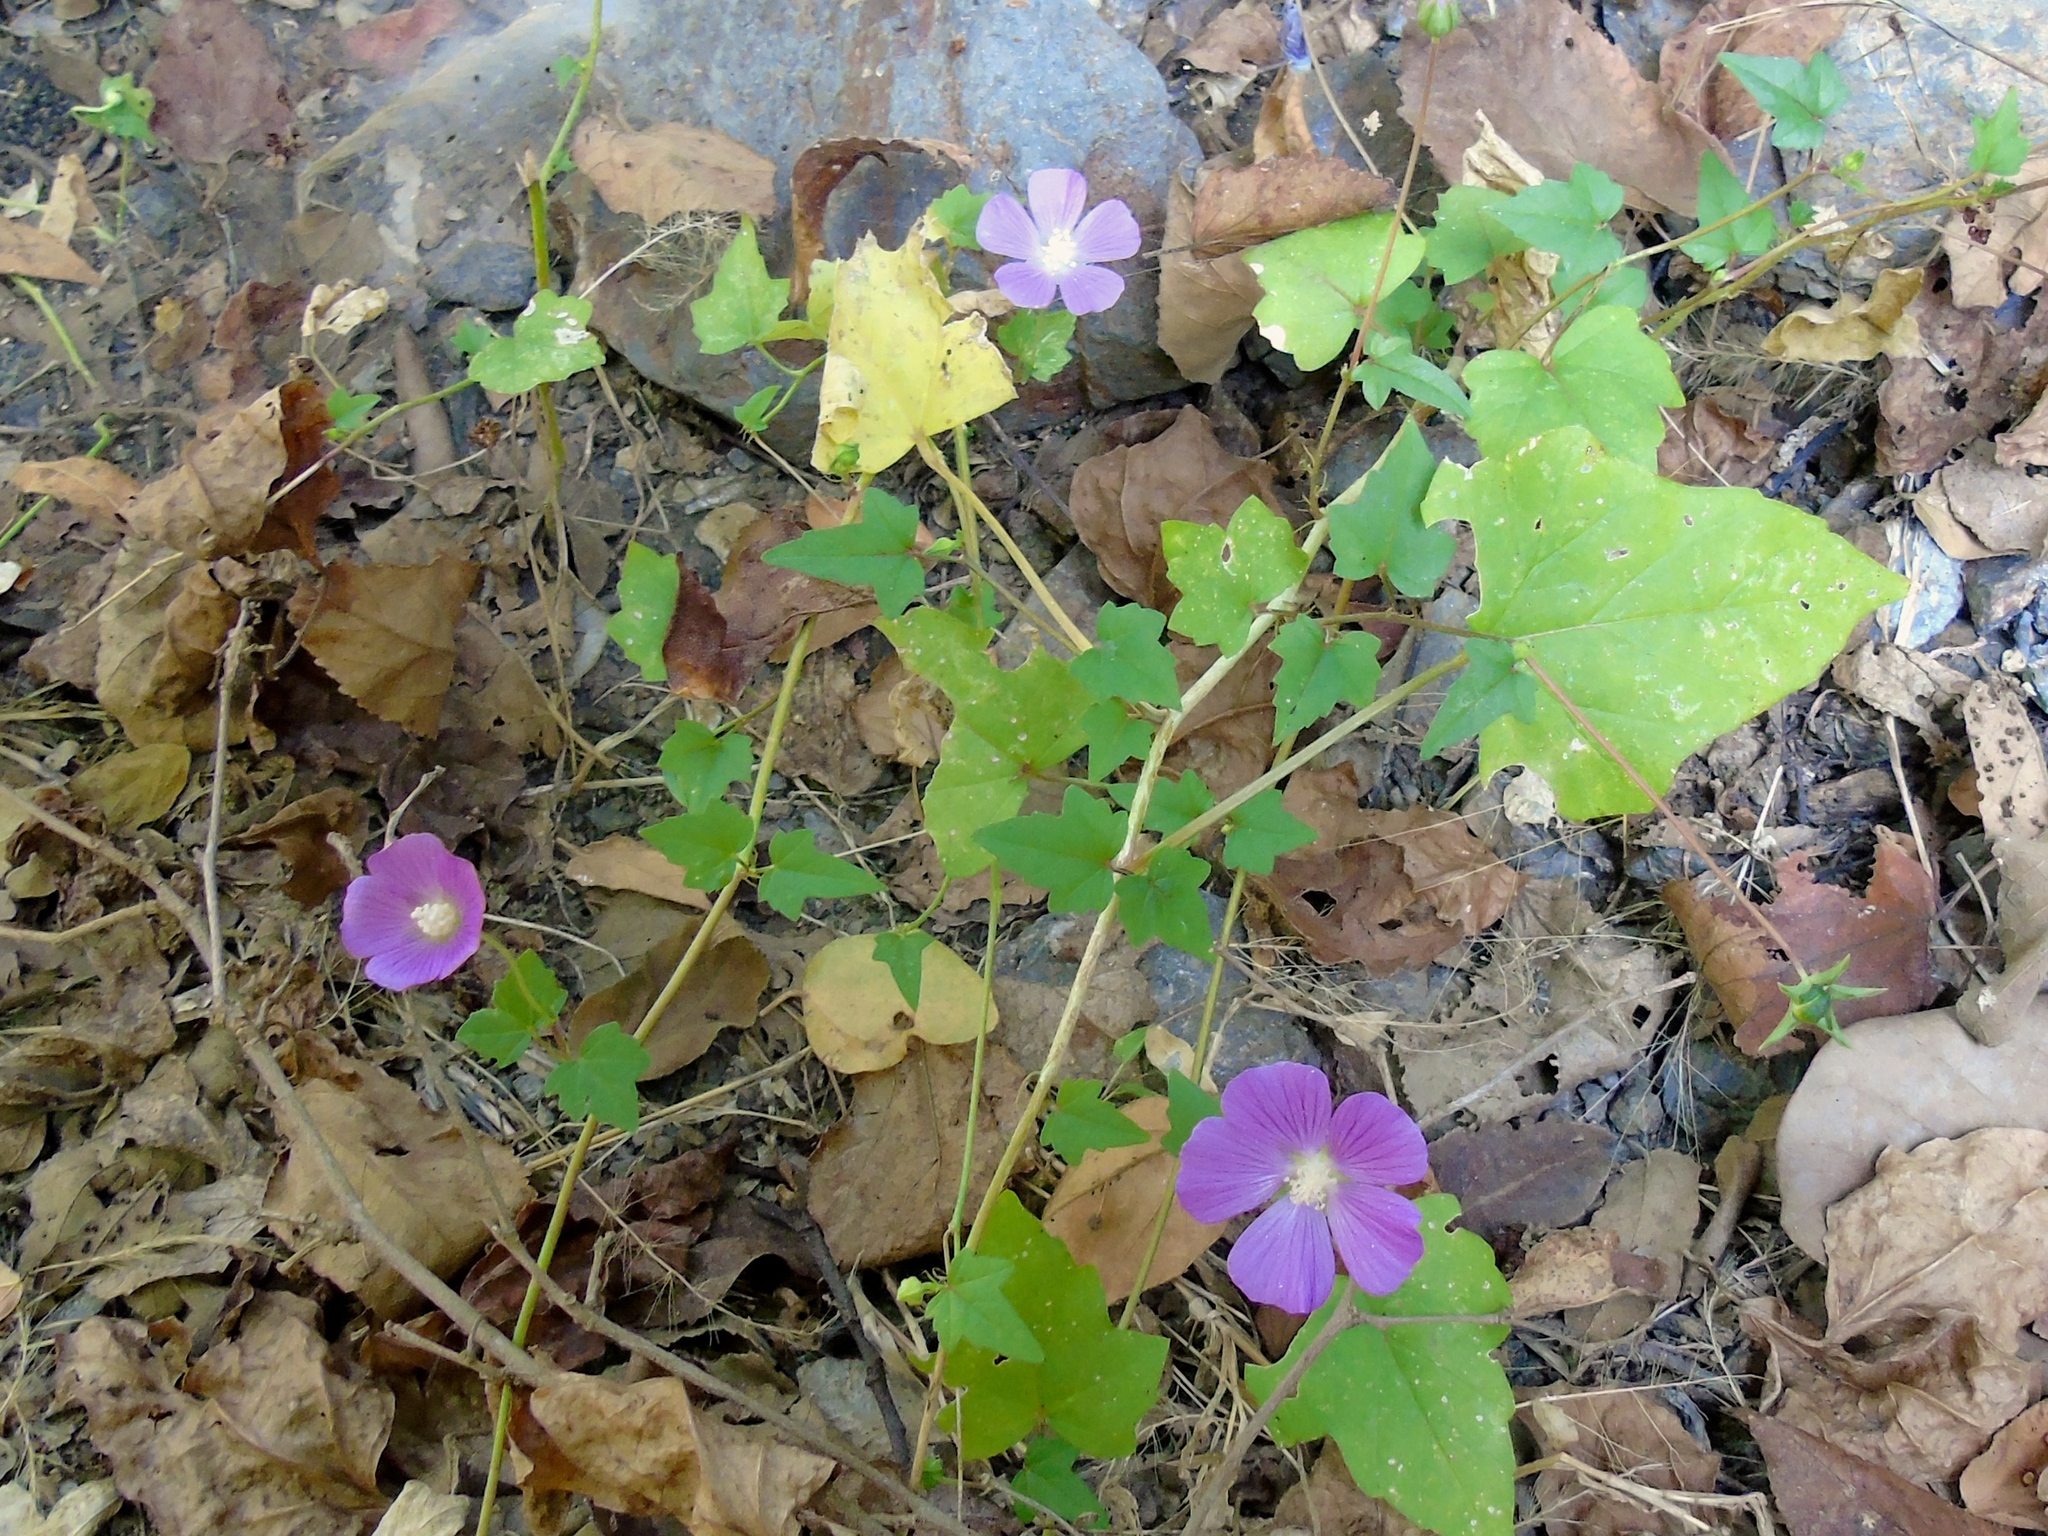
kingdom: Plantae
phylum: Tracheophyta
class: Magnoliopsida
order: Malvales
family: Malvaceae
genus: Anoda
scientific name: Anoda cristata
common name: Spurred anoda
